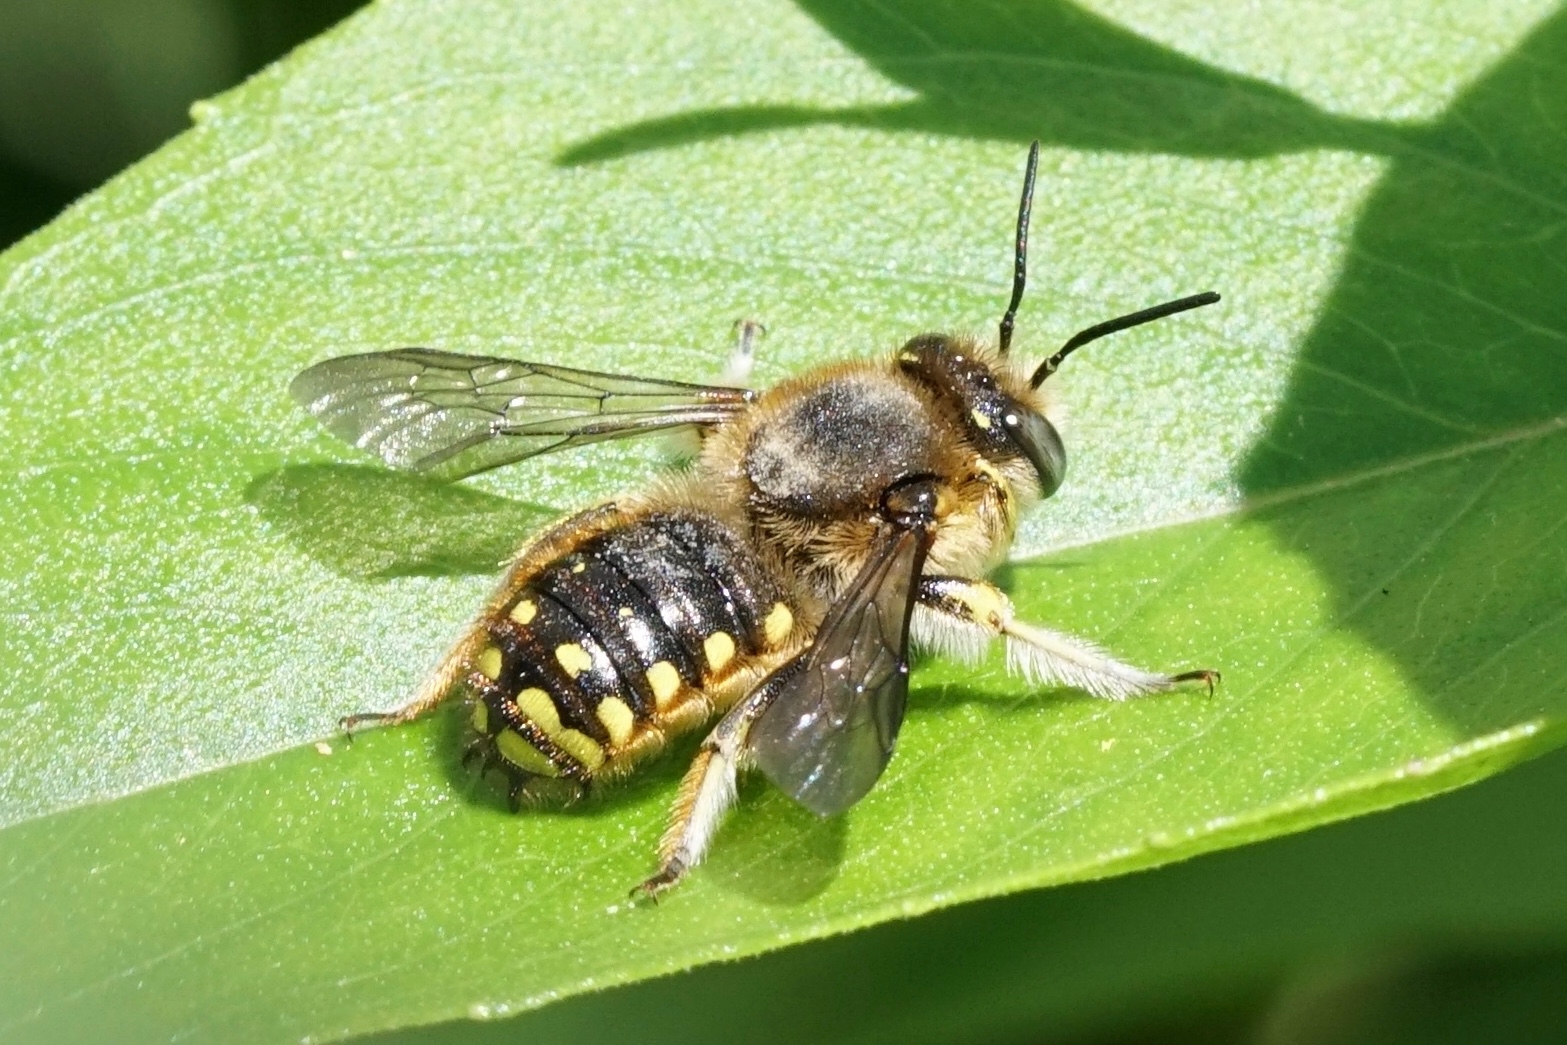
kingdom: Animalia
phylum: Arthropoda
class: Insecta
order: Hymenoptera
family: Megachilidae
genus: Anthidium
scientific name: Anthidium manicatum
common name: Wool carder bee
